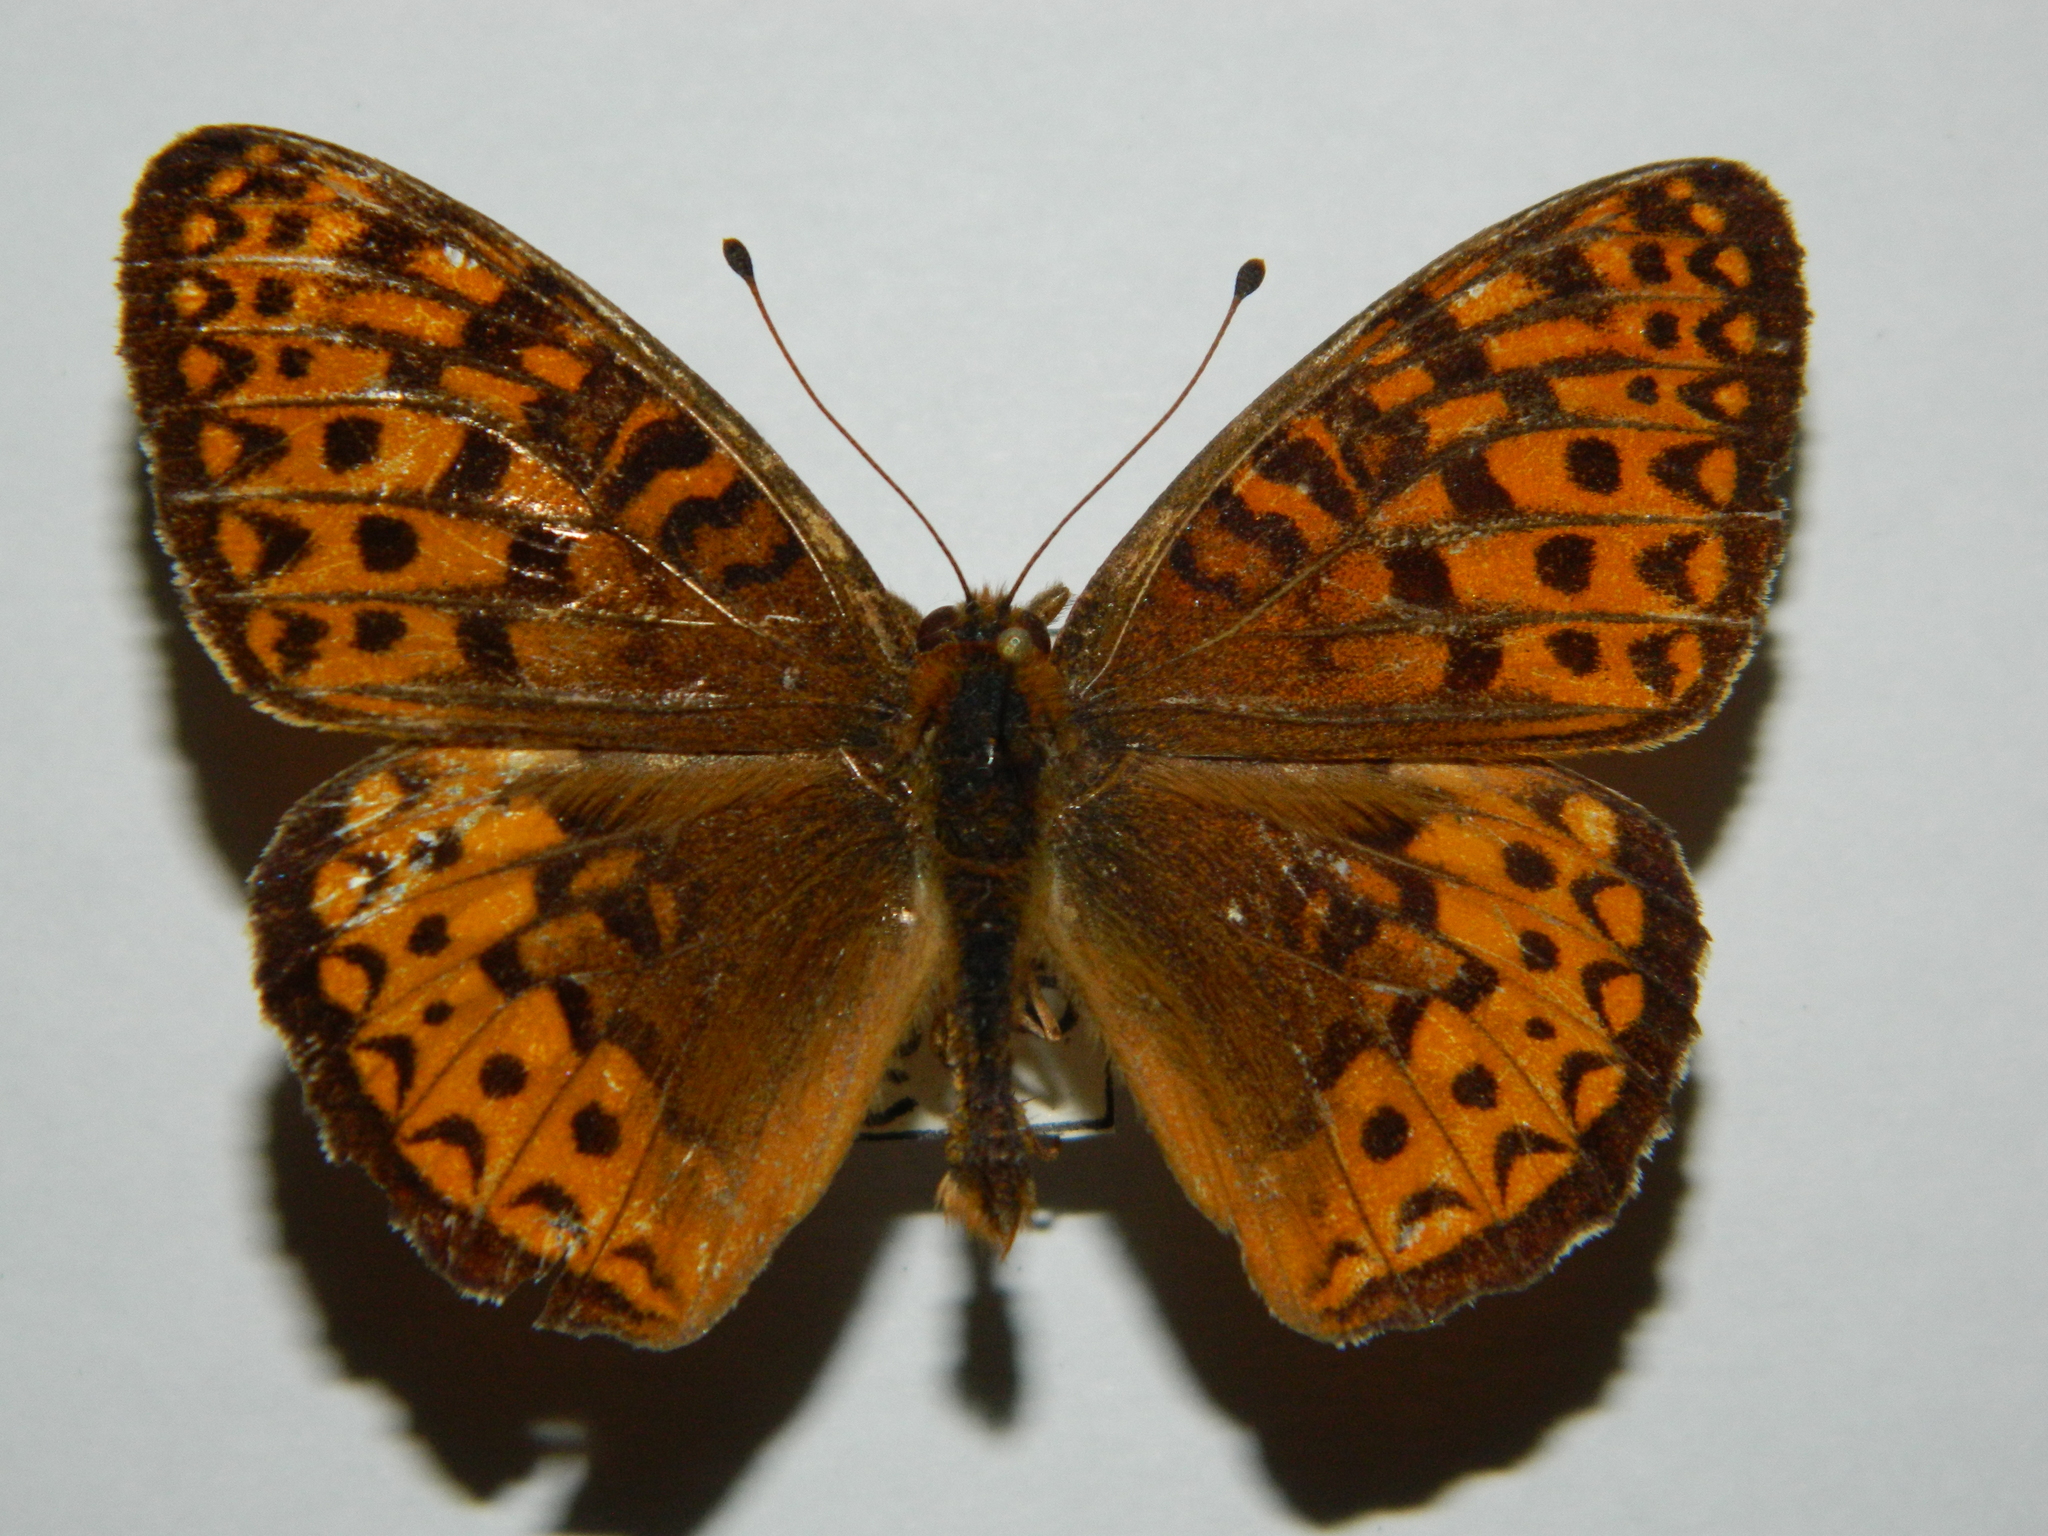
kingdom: Animalia
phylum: Arthropoda
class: Insecta
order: Lepidoptera
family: Nymphalidae
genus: Speyeria
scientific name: Speyeria atlantis
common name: Atlantis fritillary
